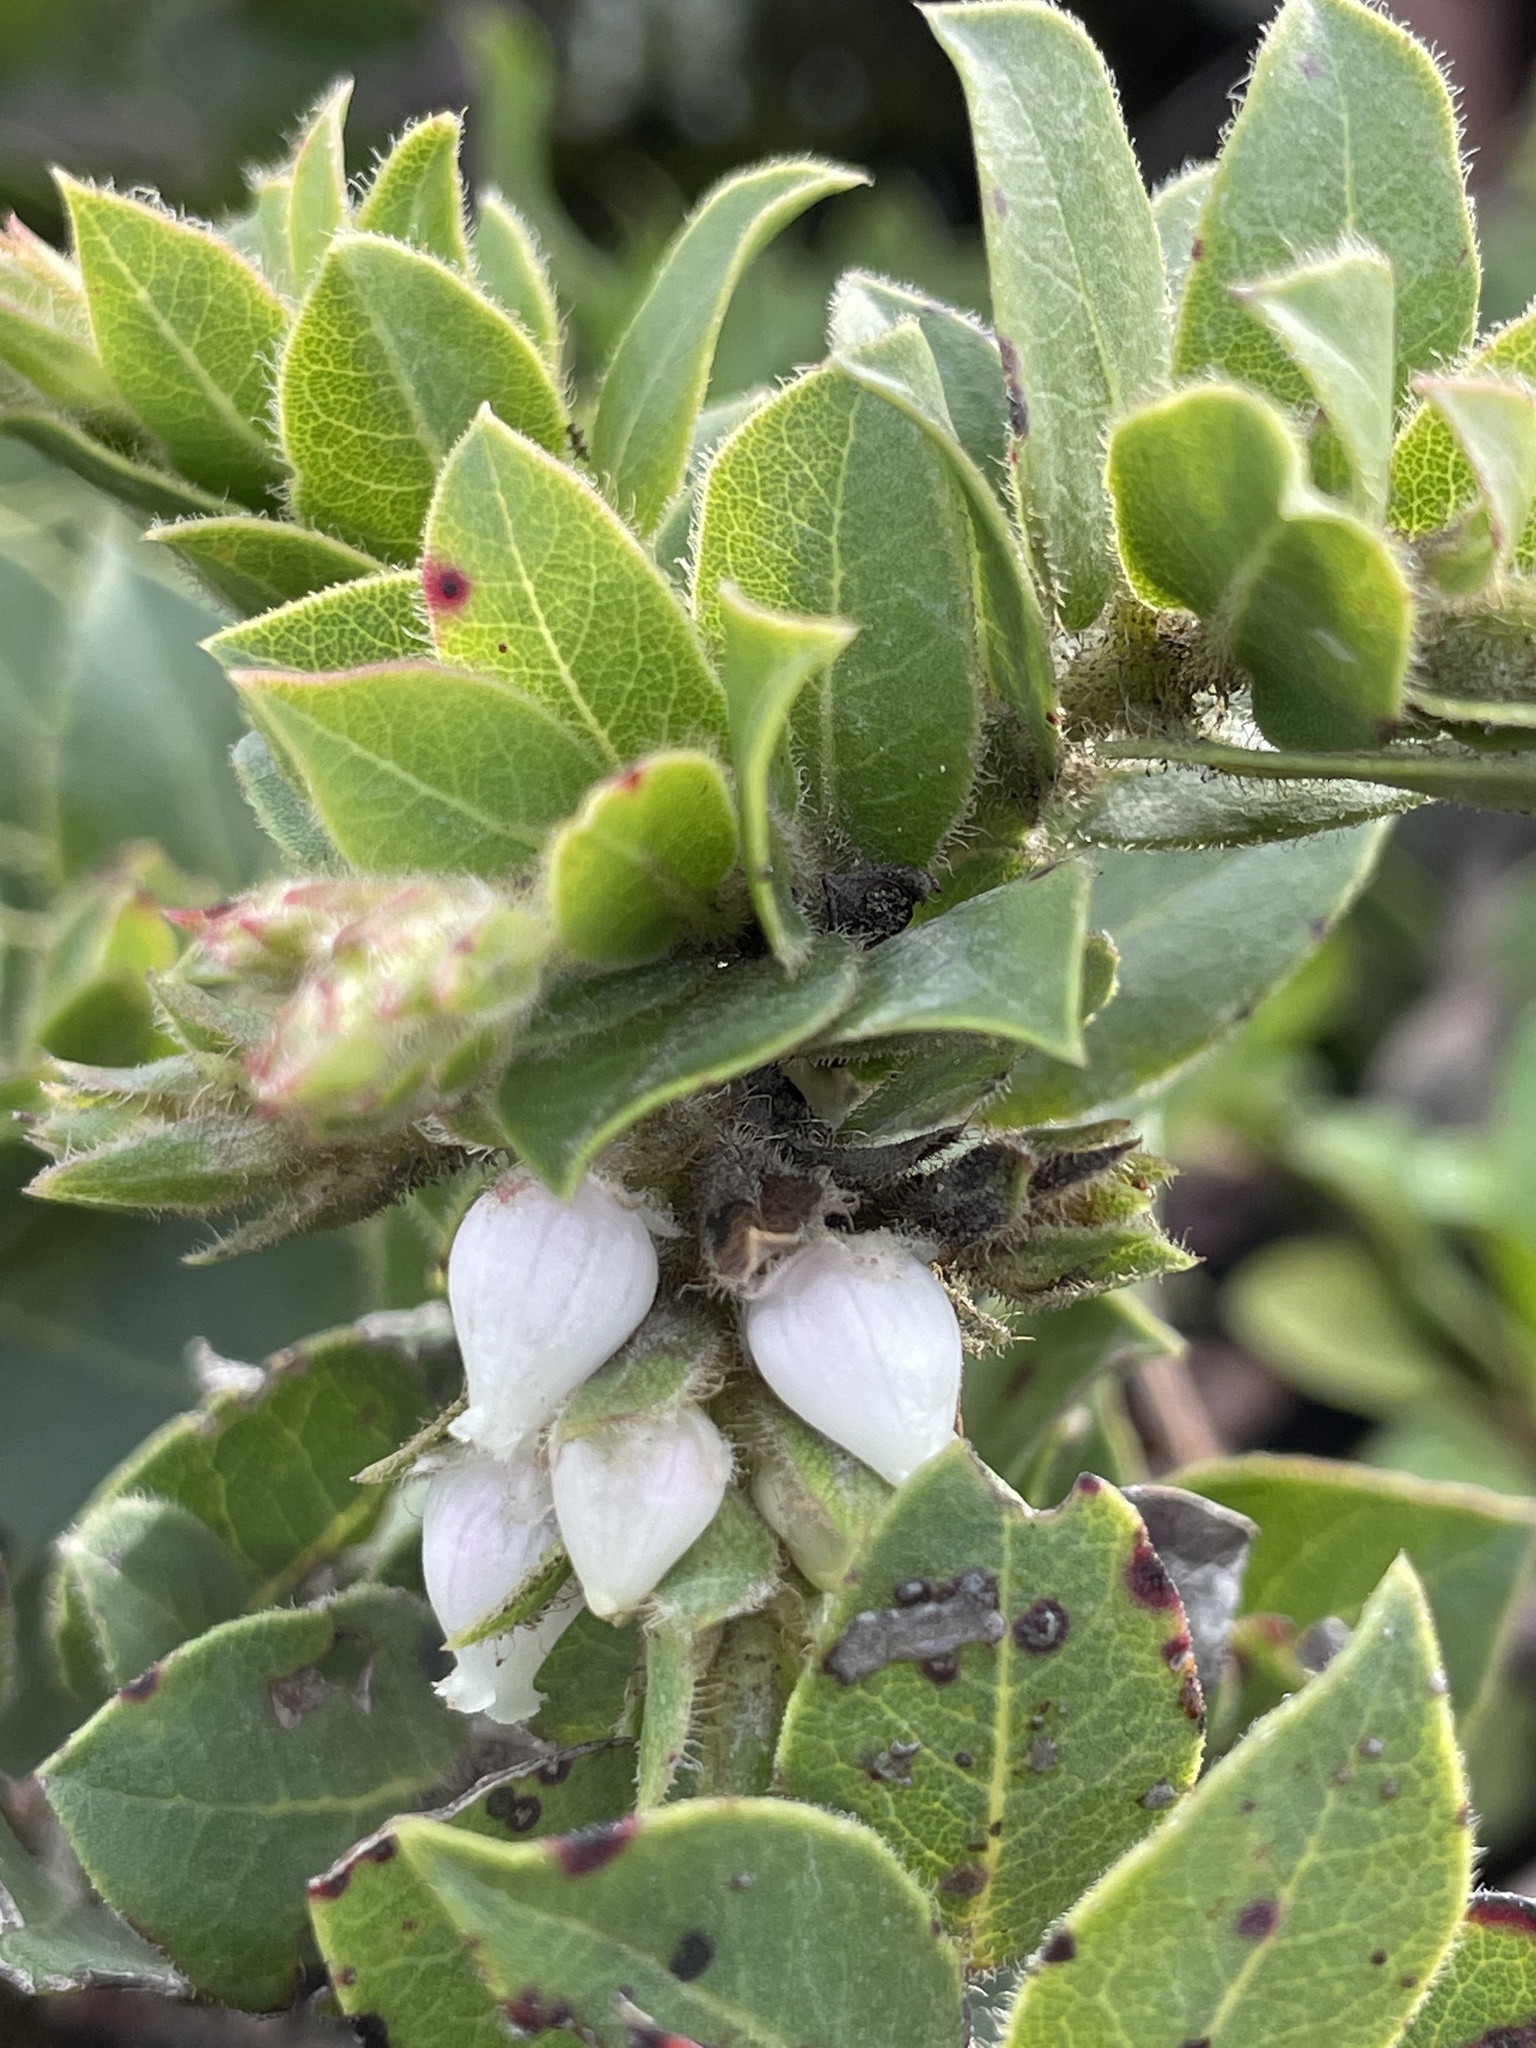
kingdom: Plantae
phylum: Tracheophyta
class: Magnoliopsida
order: Ericales
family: Ericaceae
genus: Arctostaphylos
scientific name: Arctostaphylos imbricata
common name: San bruno mountain manzanita
